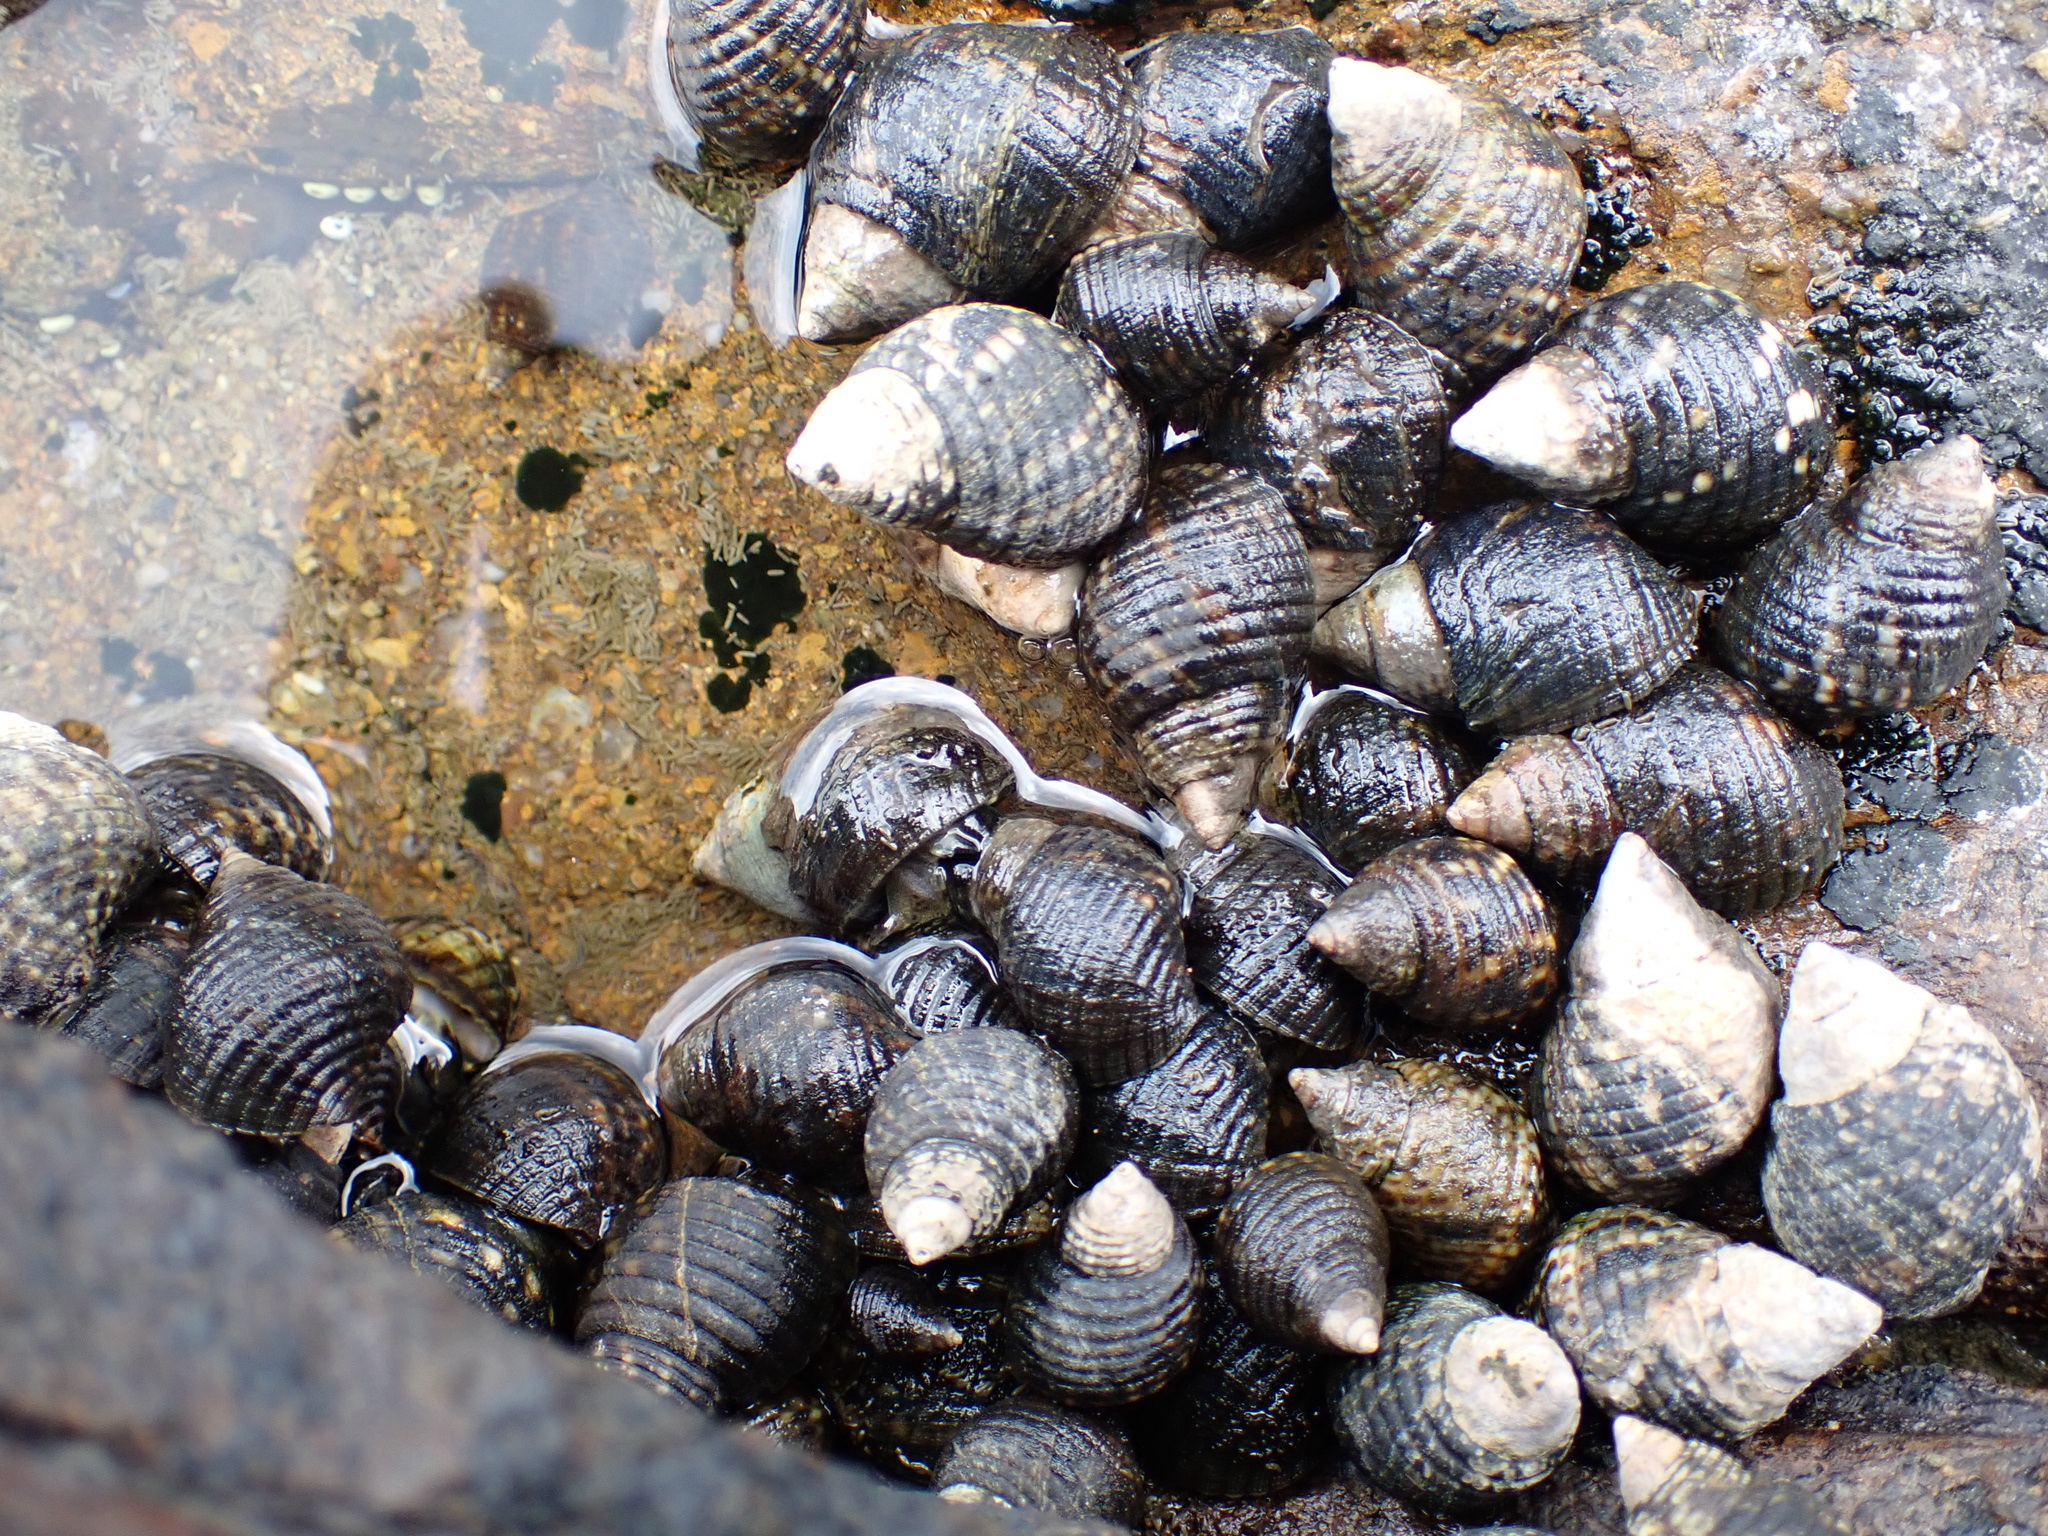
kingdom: Animalia
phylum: Mollusca
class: Gastropoda
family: Planaxidae
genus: Planaxis
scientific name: Planaxis sulcatus
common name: Furrowed planaxis
